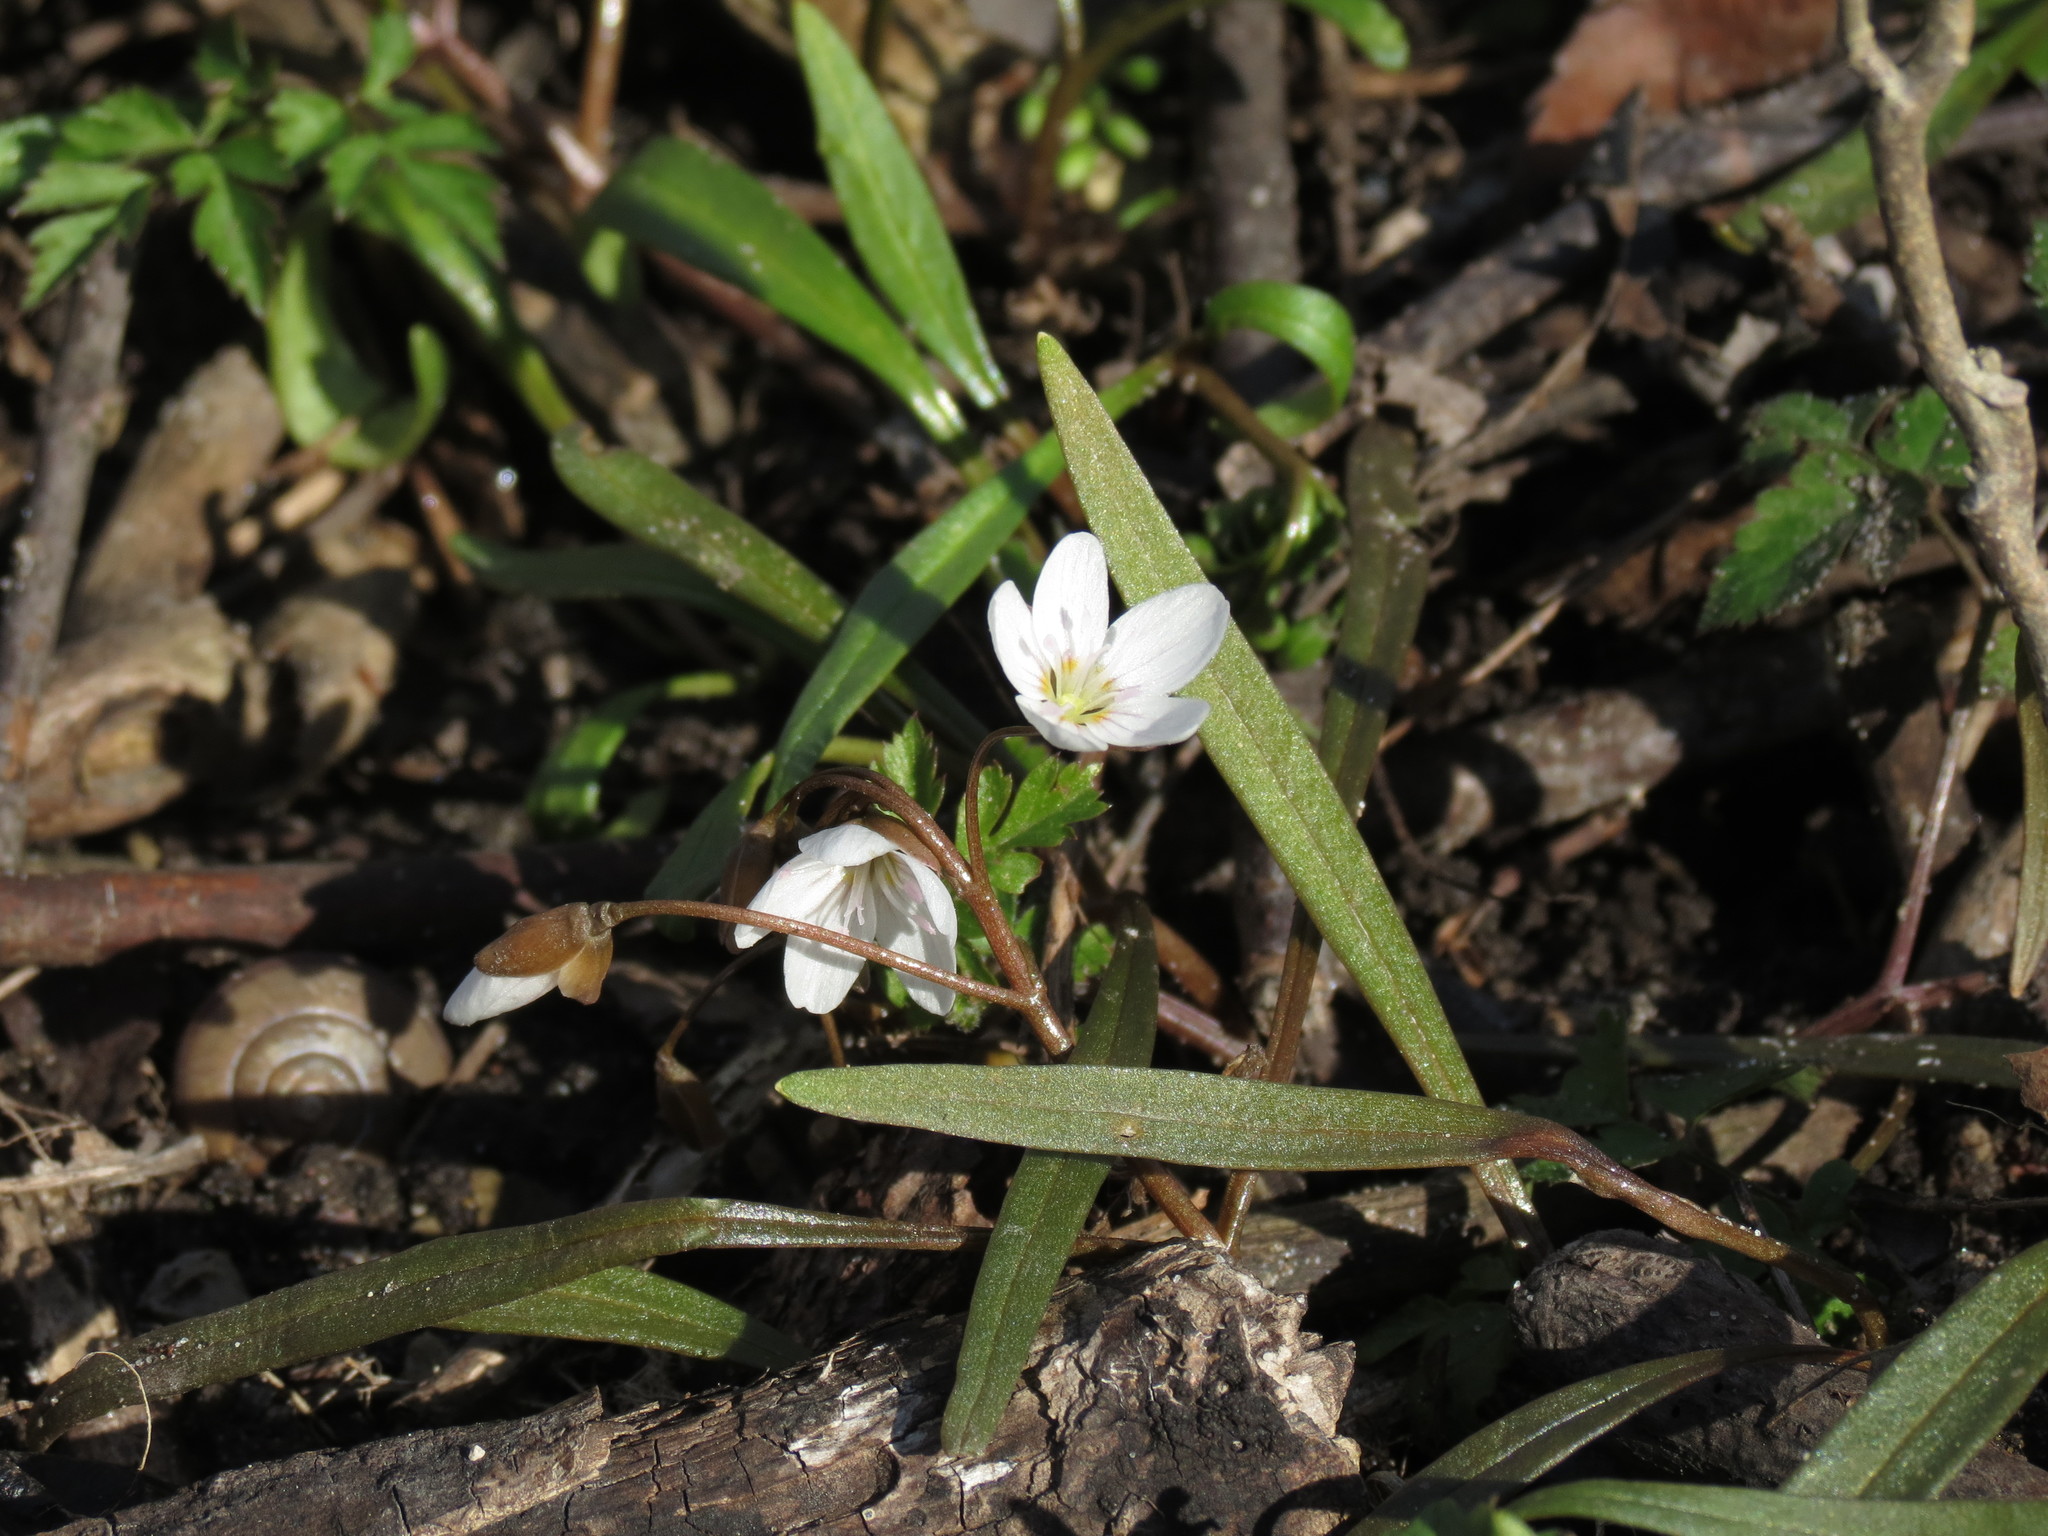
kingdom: Plantae
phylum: Tracheophyta
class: Magnoliopsida
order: Caryophyllales
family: Montiaceae
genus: Claytonia
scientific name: Claytonia virginica
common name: Virginia springbeauty
